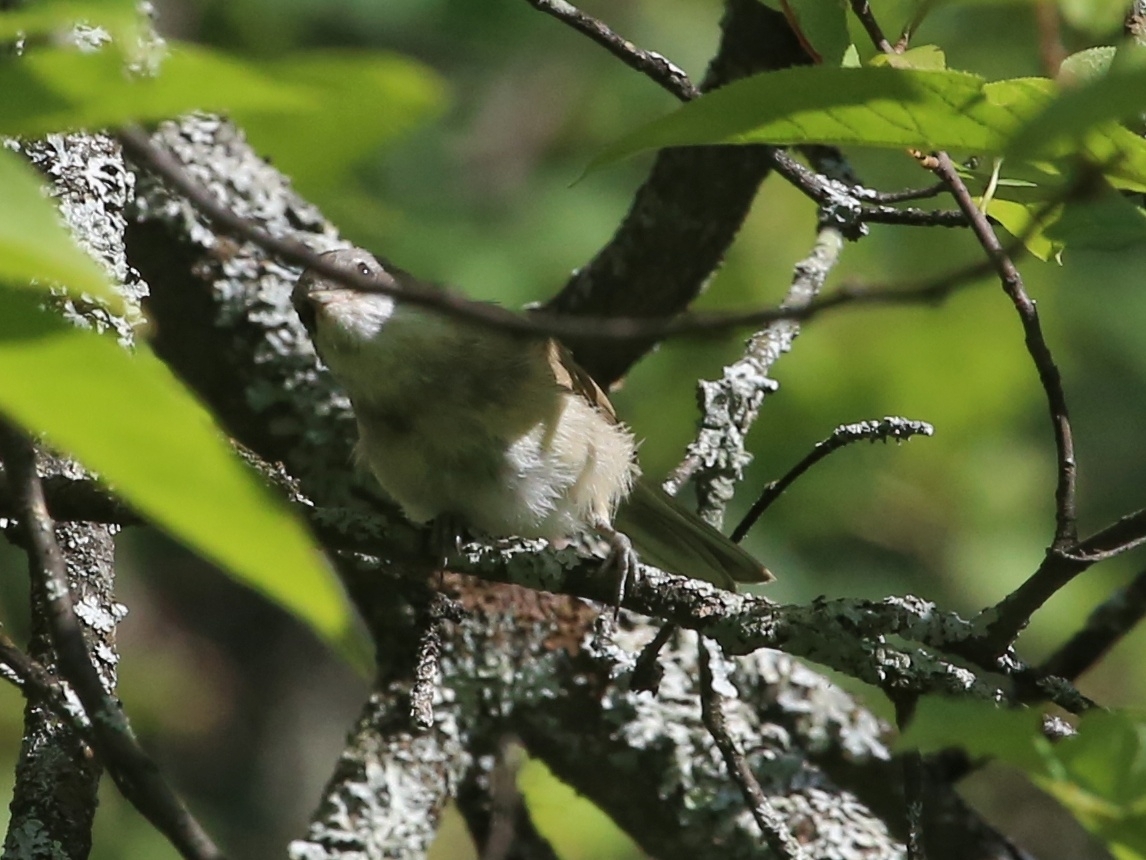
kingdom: Animalia
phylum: Chordata
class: Aves
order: Passeriformes
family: Sylviidae
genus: Sylvia
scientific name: Sylvia curruca
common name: Lesser whitethroat
